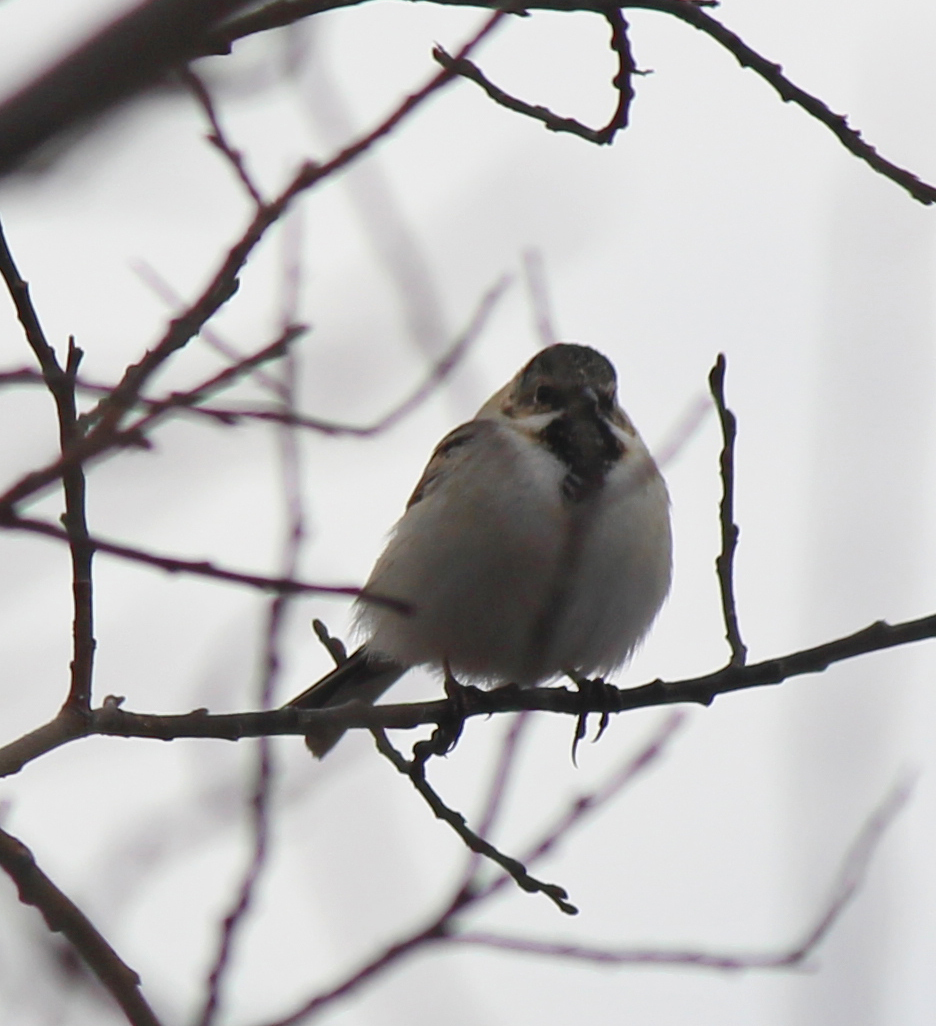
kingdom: Animalia
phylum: Chordata
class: Aves
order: Passeriformes
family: Emberizidae
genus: Emberiza
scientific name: Emberiza pallasi
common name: Pallas's reed bunting
